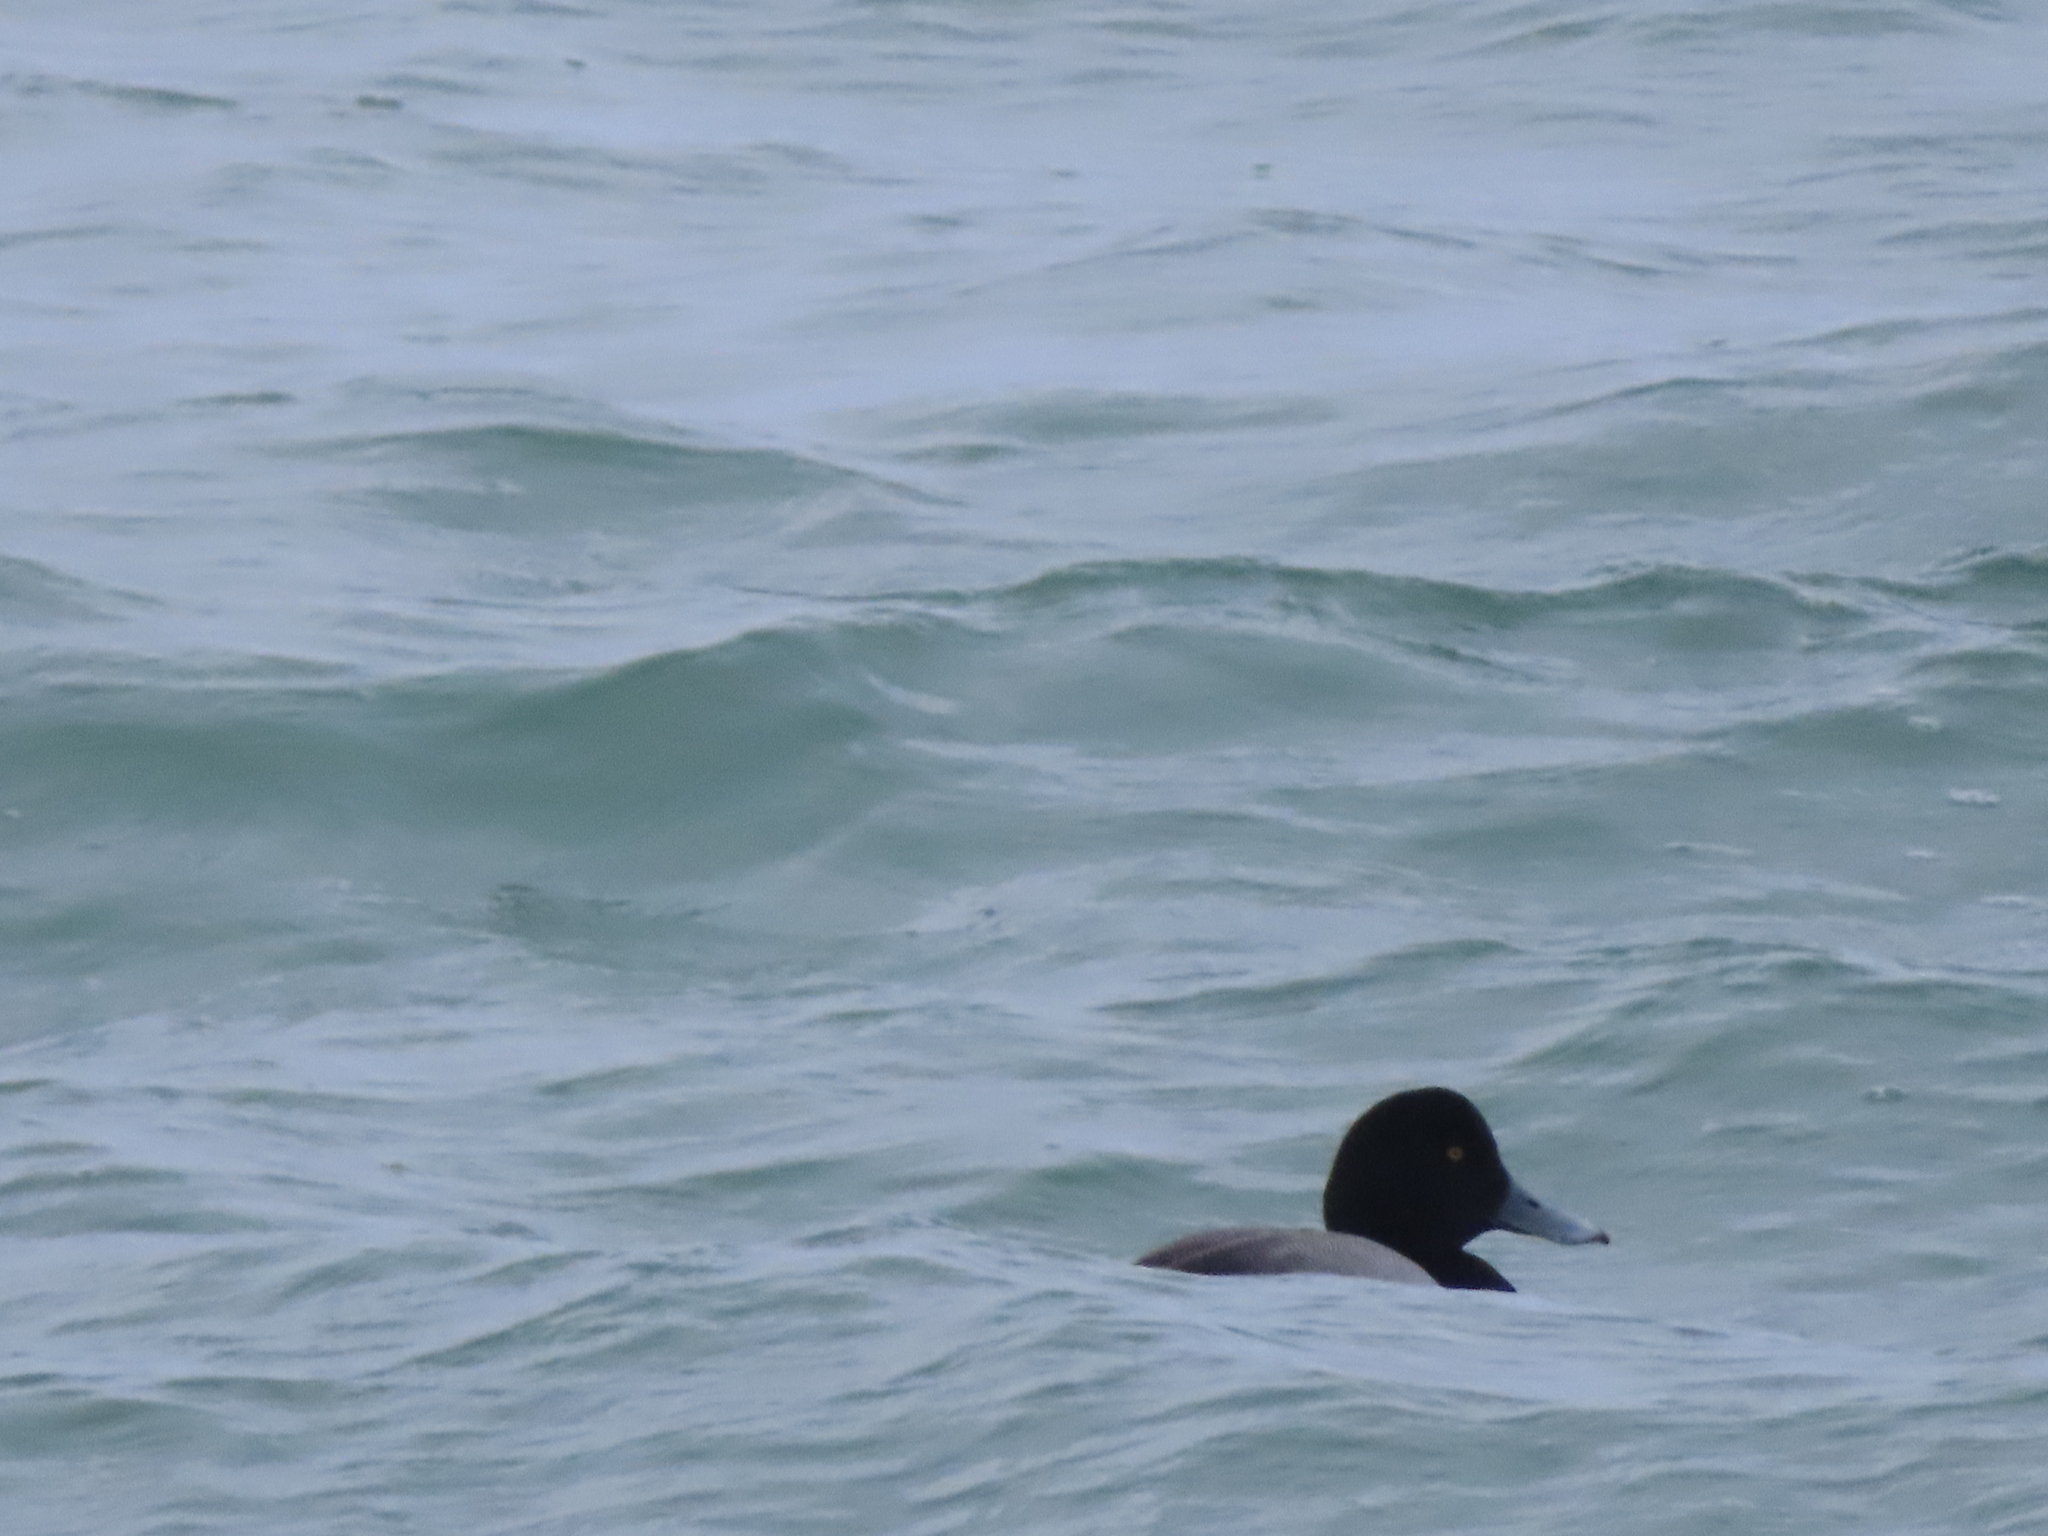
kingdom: Animalia
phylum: Chordata
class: Aves
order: Anseriformes
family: Anatidae
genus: Aythya
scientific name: Aythya marila
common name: Greater scaup
